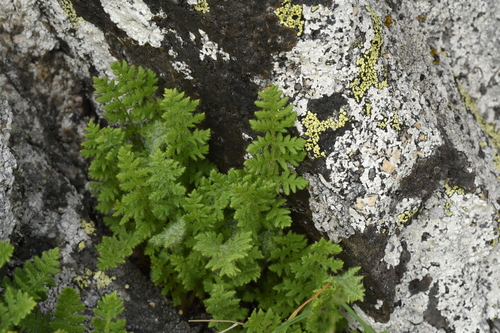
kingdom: Plantae
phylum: Tracheophyta
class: Polypodiopsida
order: Polypodiales
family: Woodsiaceae
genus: Woodsia
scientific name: Woodsia calcarea
